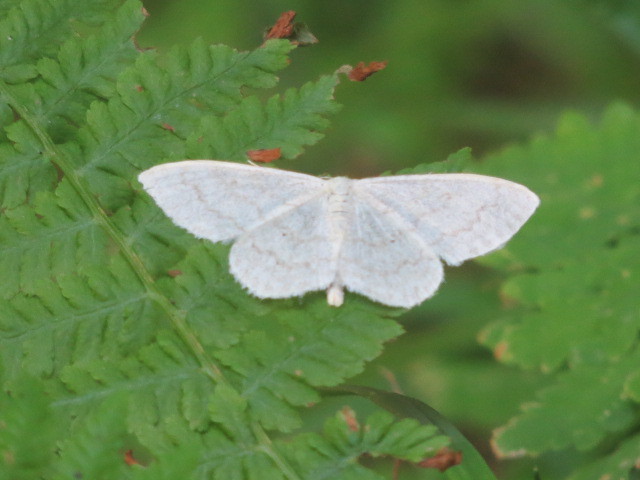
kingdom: Animalia
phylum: Arthropoda
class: Insecta
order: Lepidoptera
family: Geometridae
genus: Scopula
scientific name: Scopula floslactata
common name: Cream wave
